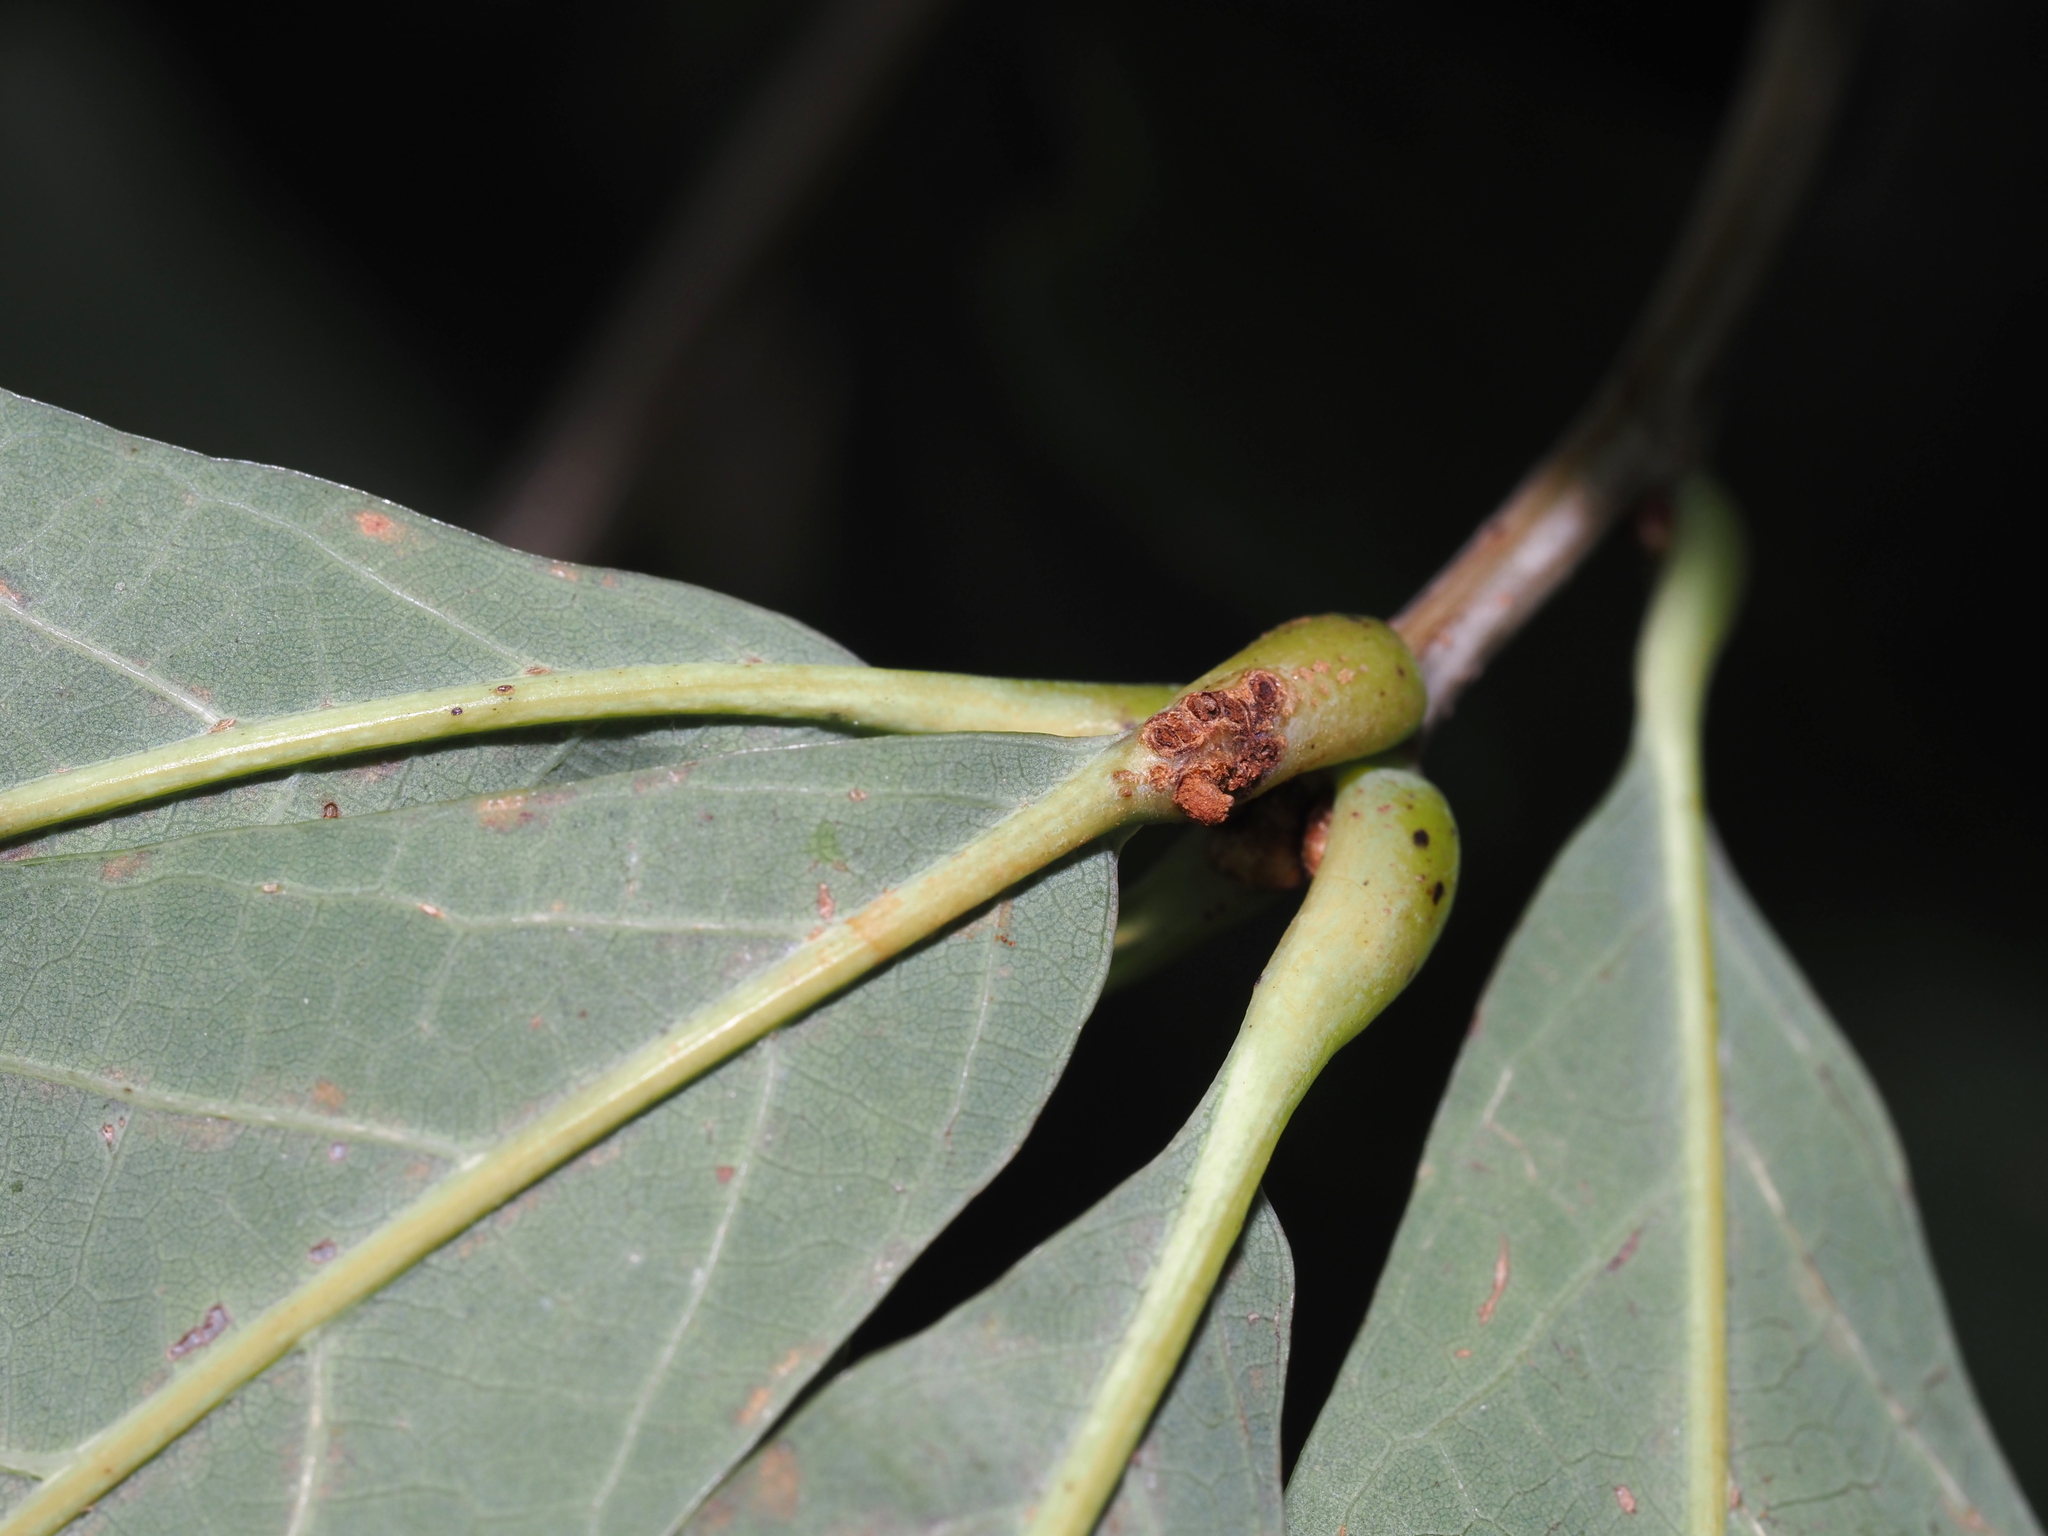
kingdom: Animalia
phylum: Arthropoda
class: Insecta
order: Hymenoptera
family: Cynipidae
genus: Andricus
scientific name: Andricus
